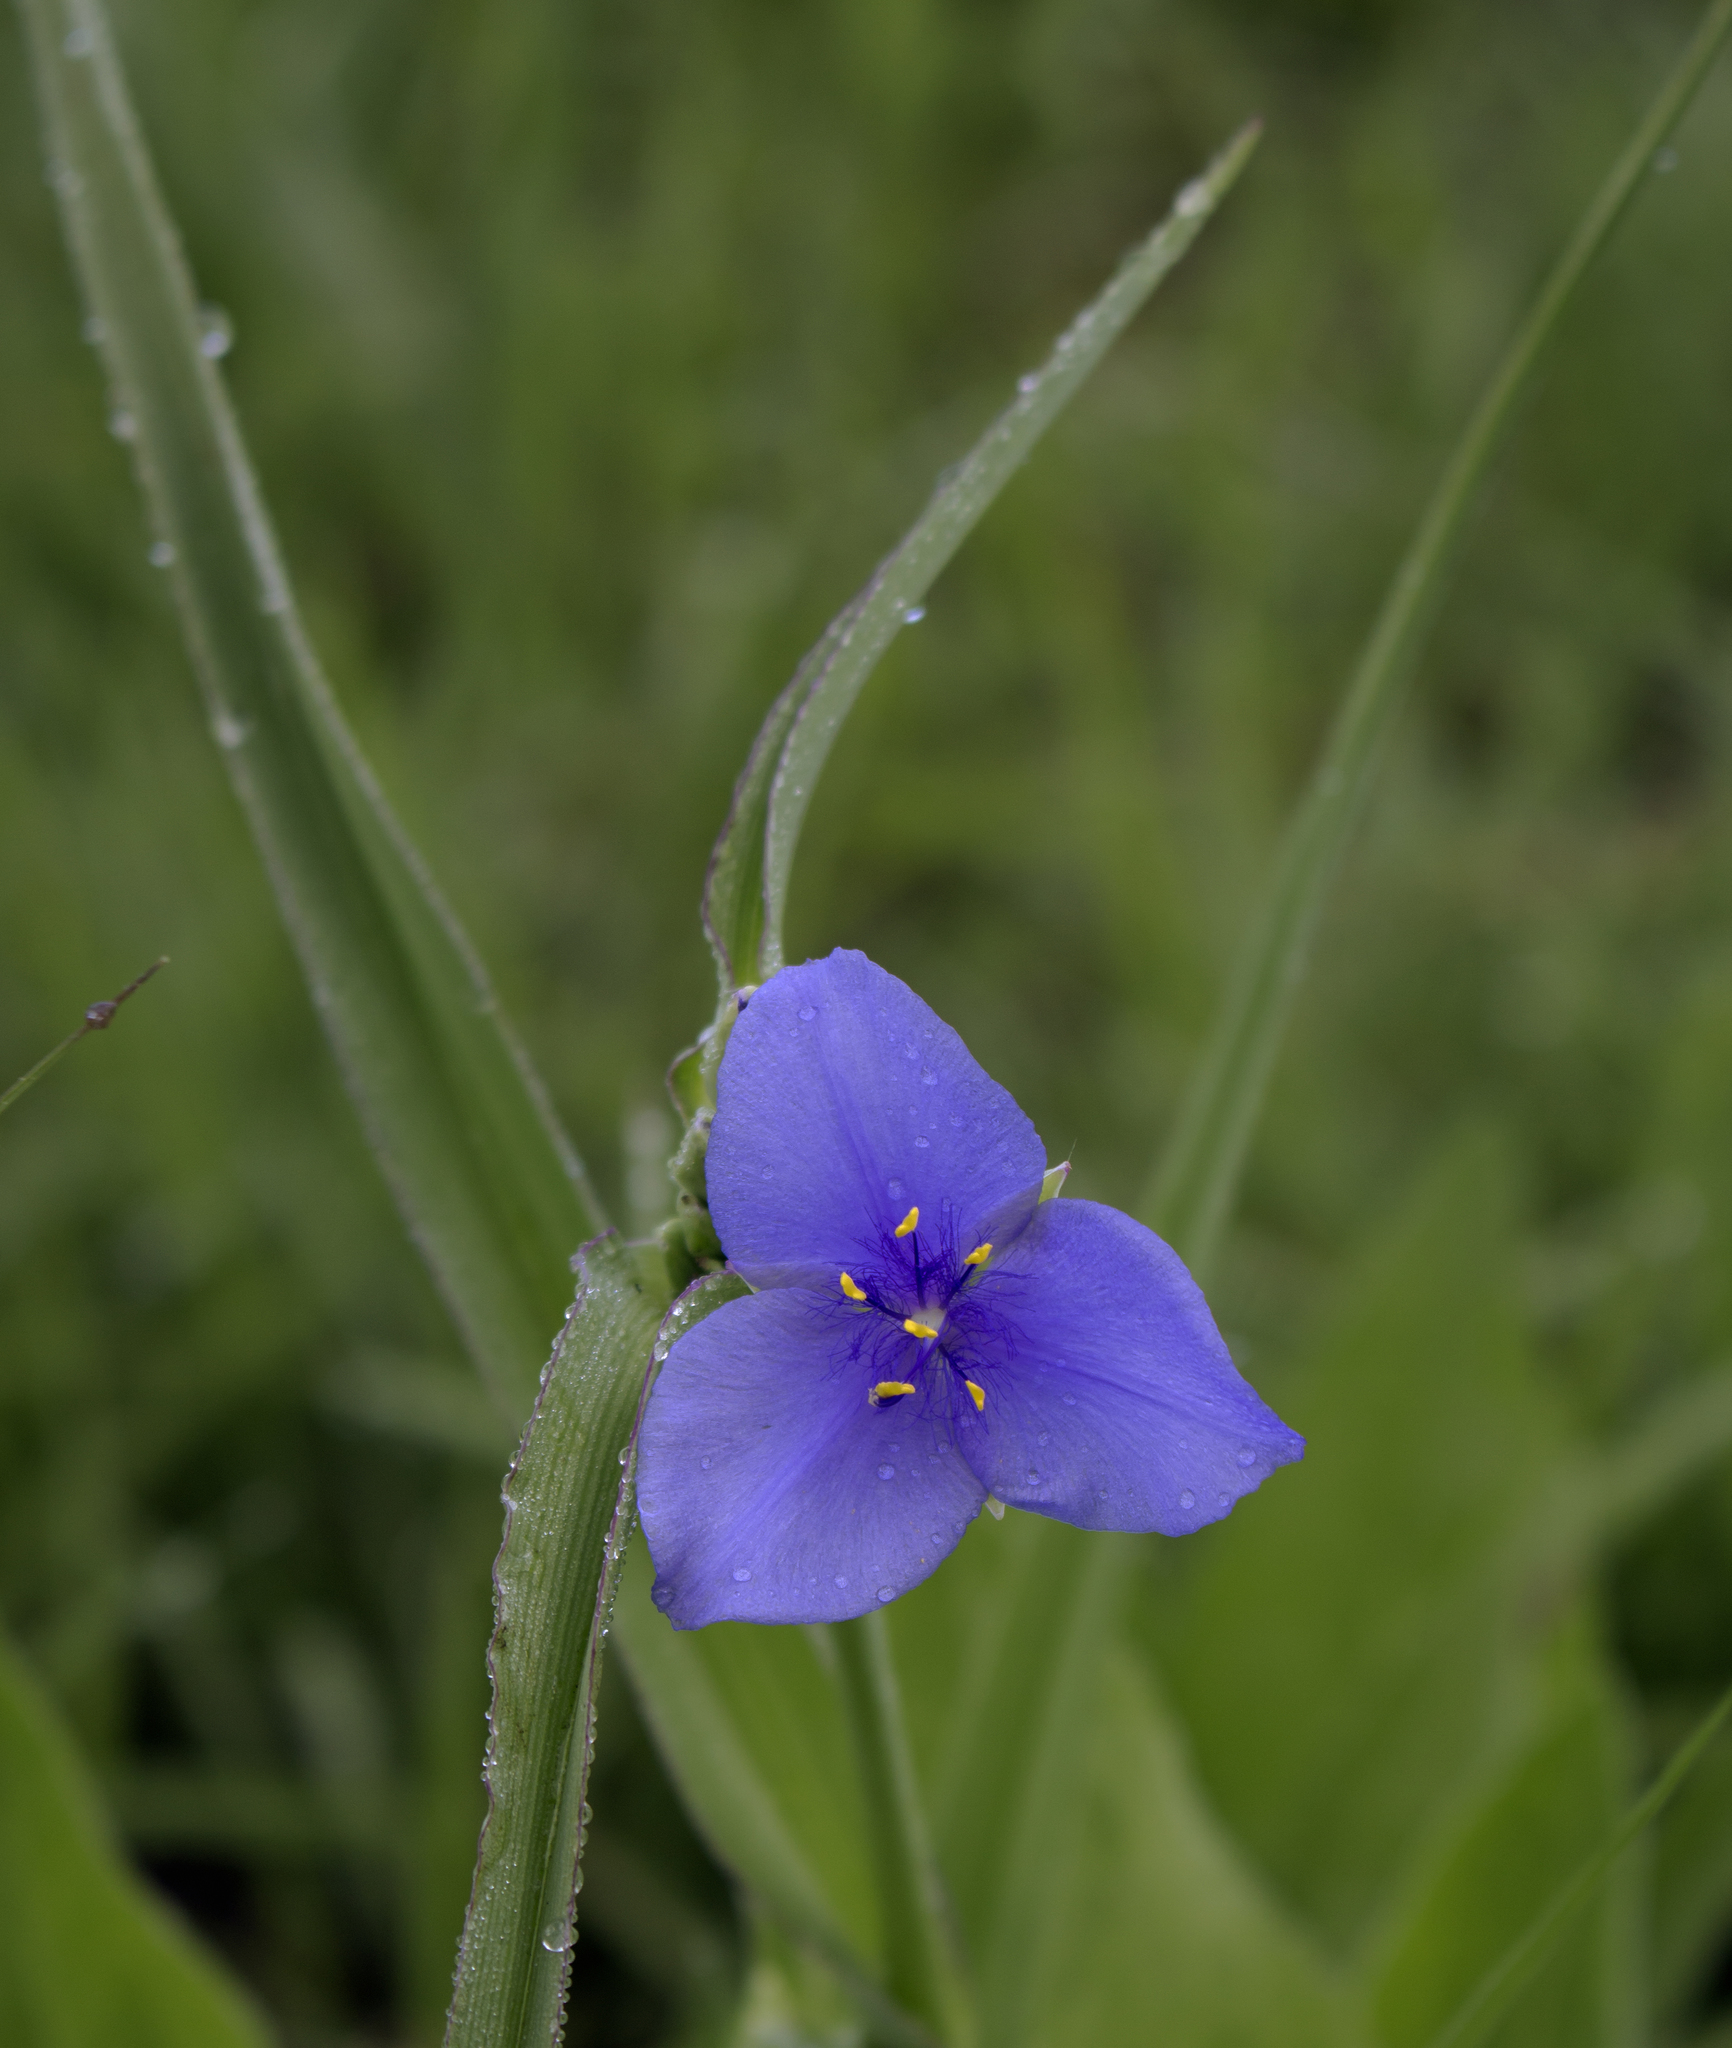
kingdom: Plantae
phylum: Tracheophyta
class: Liliopsida
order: Commelinales
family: Commelinaceae
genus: Tradescantia
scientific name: Tradescantia ohiensis
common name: Ohio spiderwort
